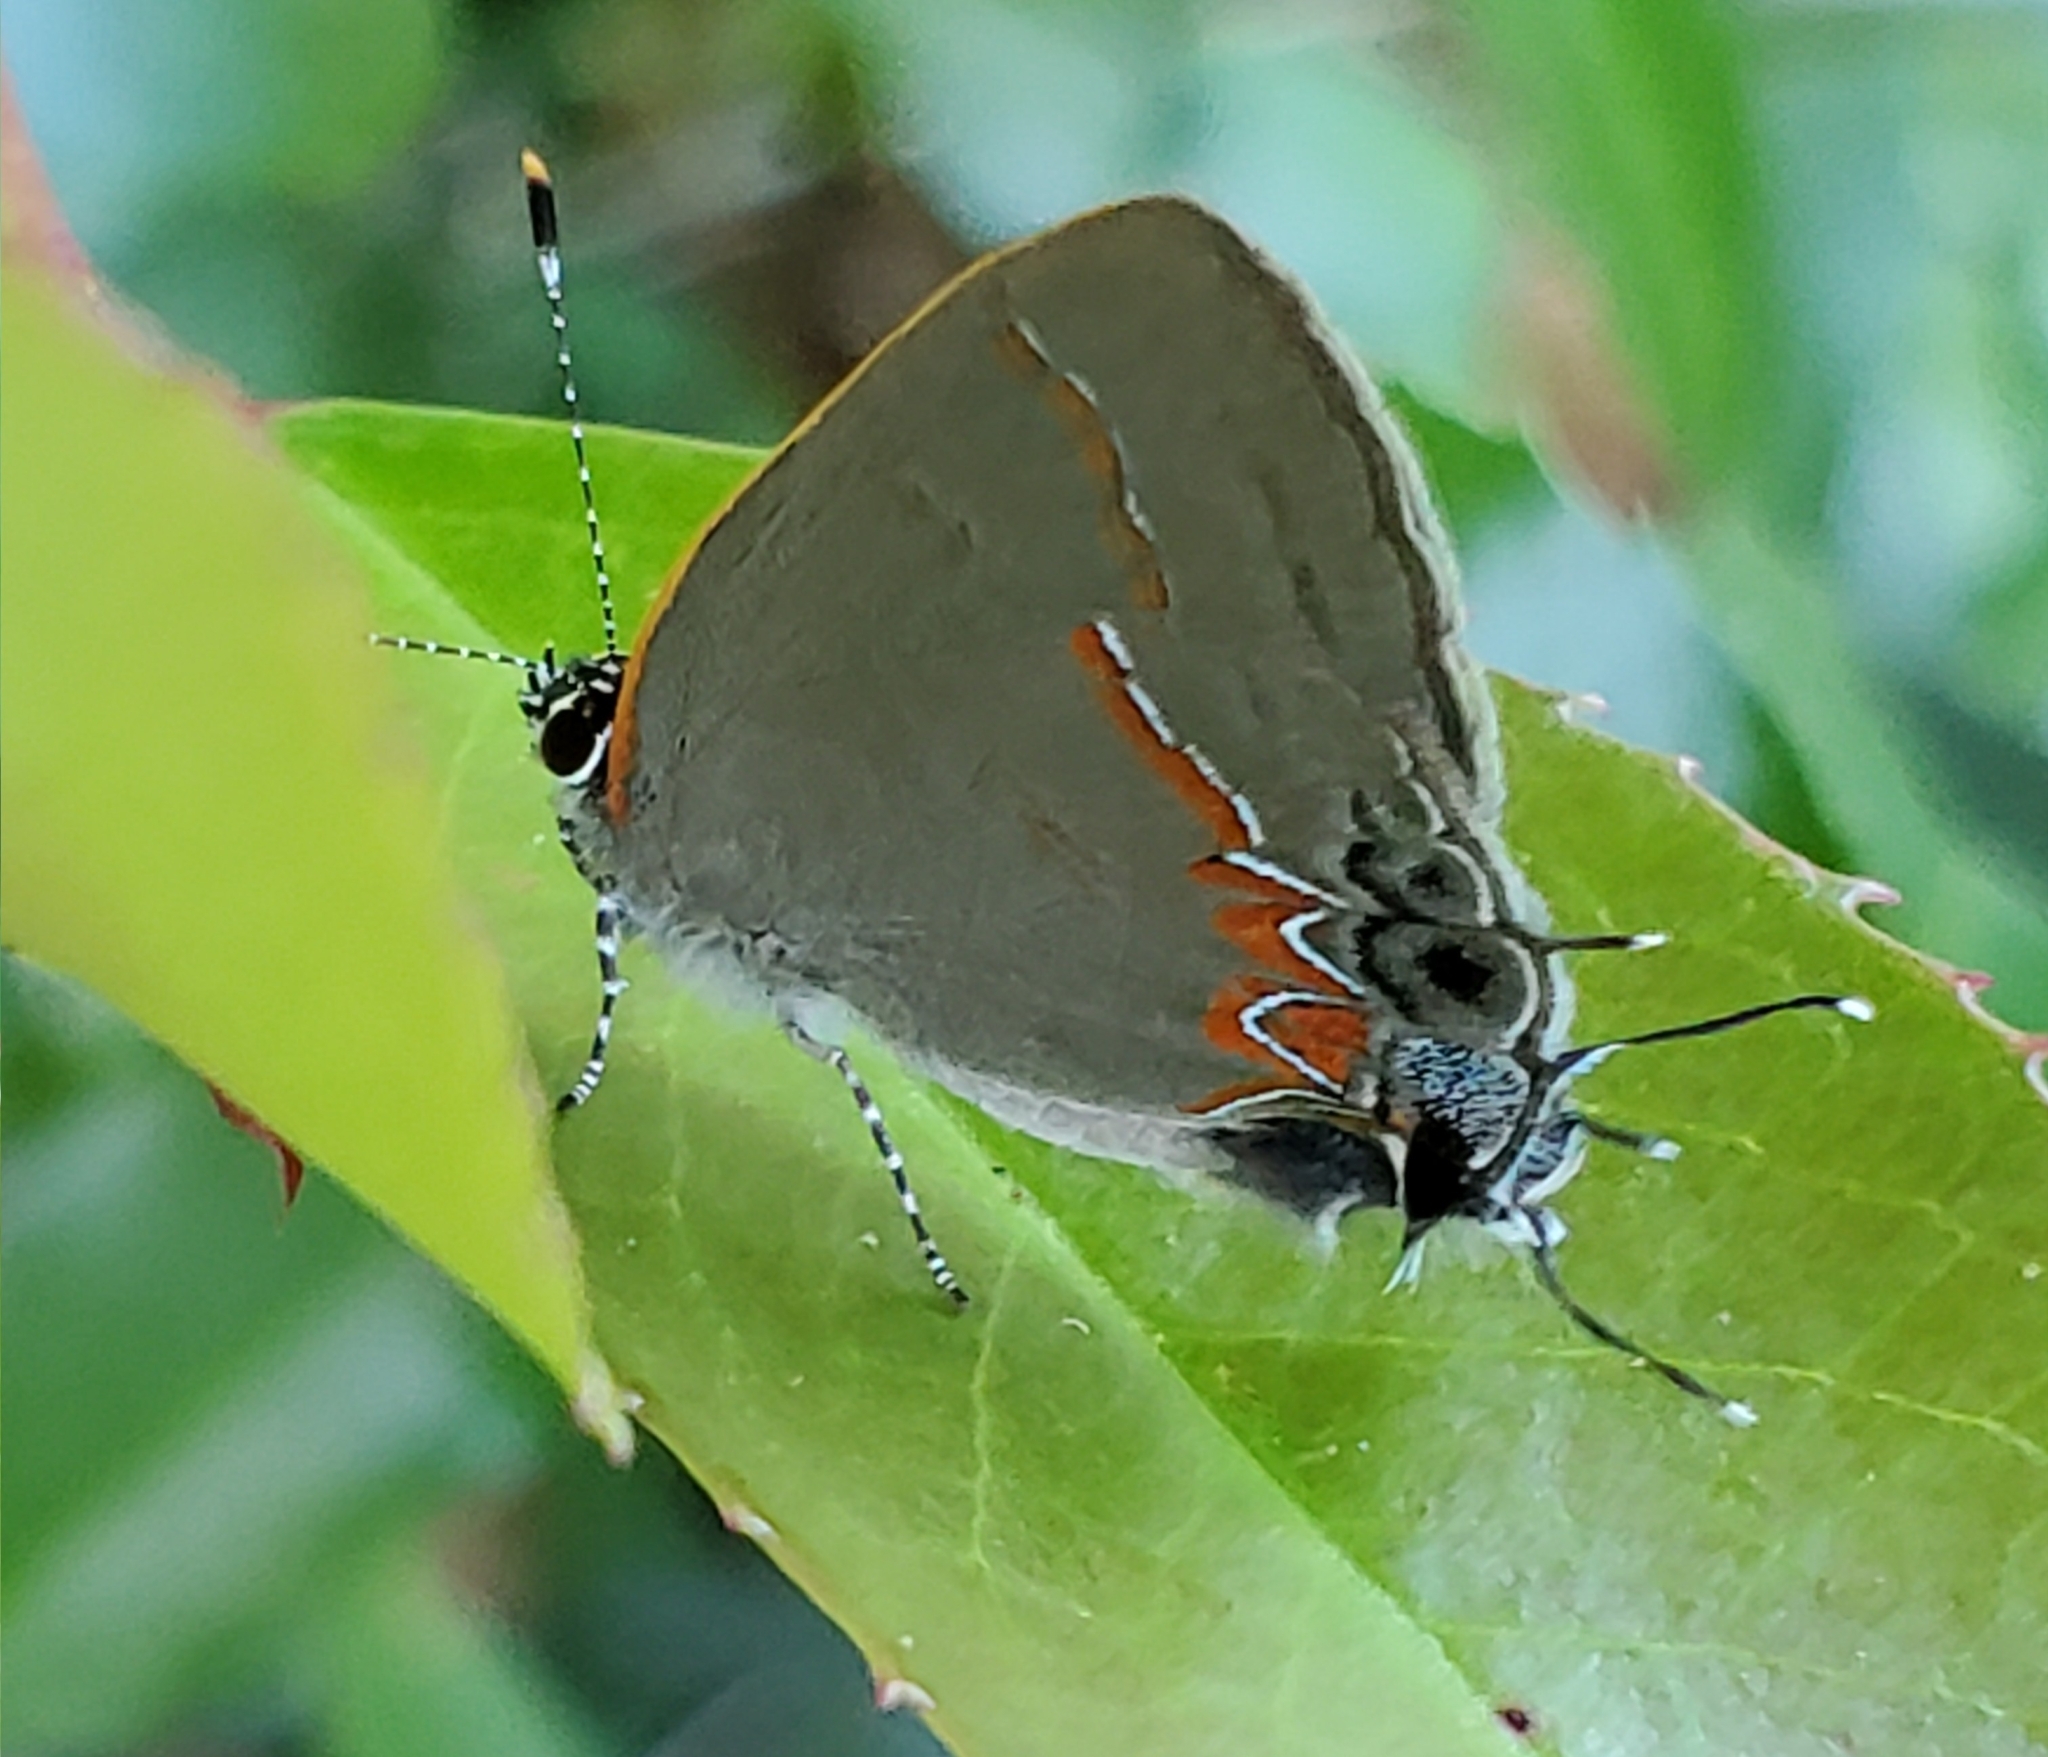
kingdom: Animalia
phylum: Arthropoda
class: Insecta
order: Lepidoptera
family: Lycaenidae
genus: Calycopis
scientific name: Calycopis cecrops
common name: Red-banded hairstreak
